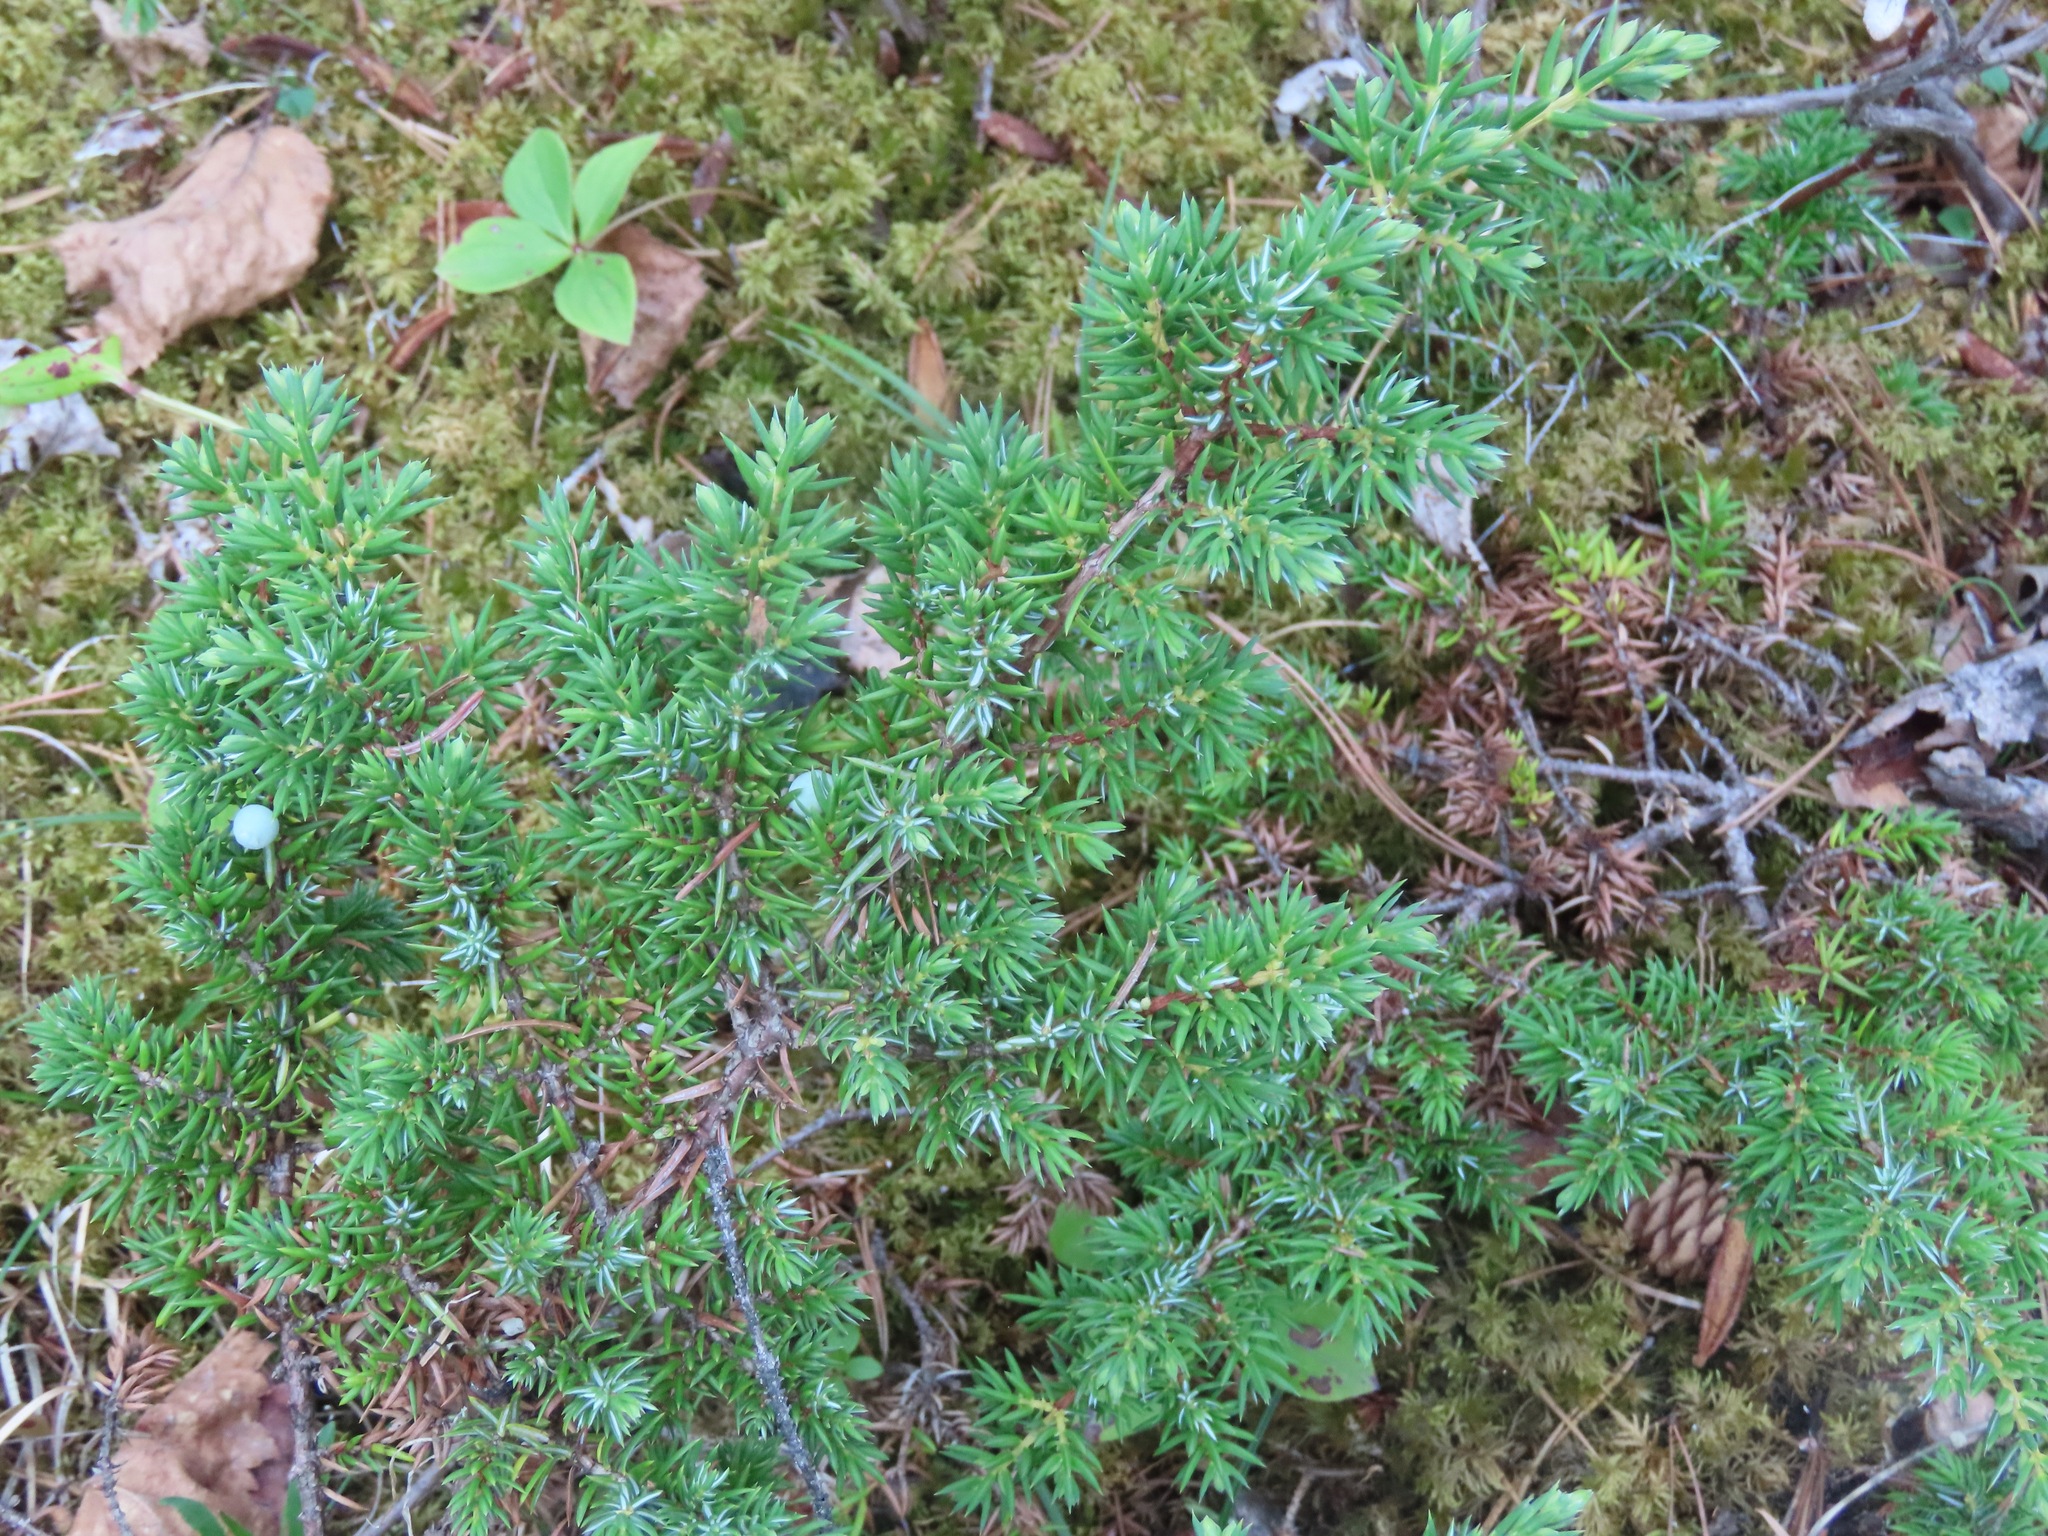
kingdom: Plantae
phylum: Tracheophyta
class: Pinopsida
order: Pinales
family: Cupressaceae
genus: Juniperus
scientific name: Juniperus communis
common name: Common juniper
